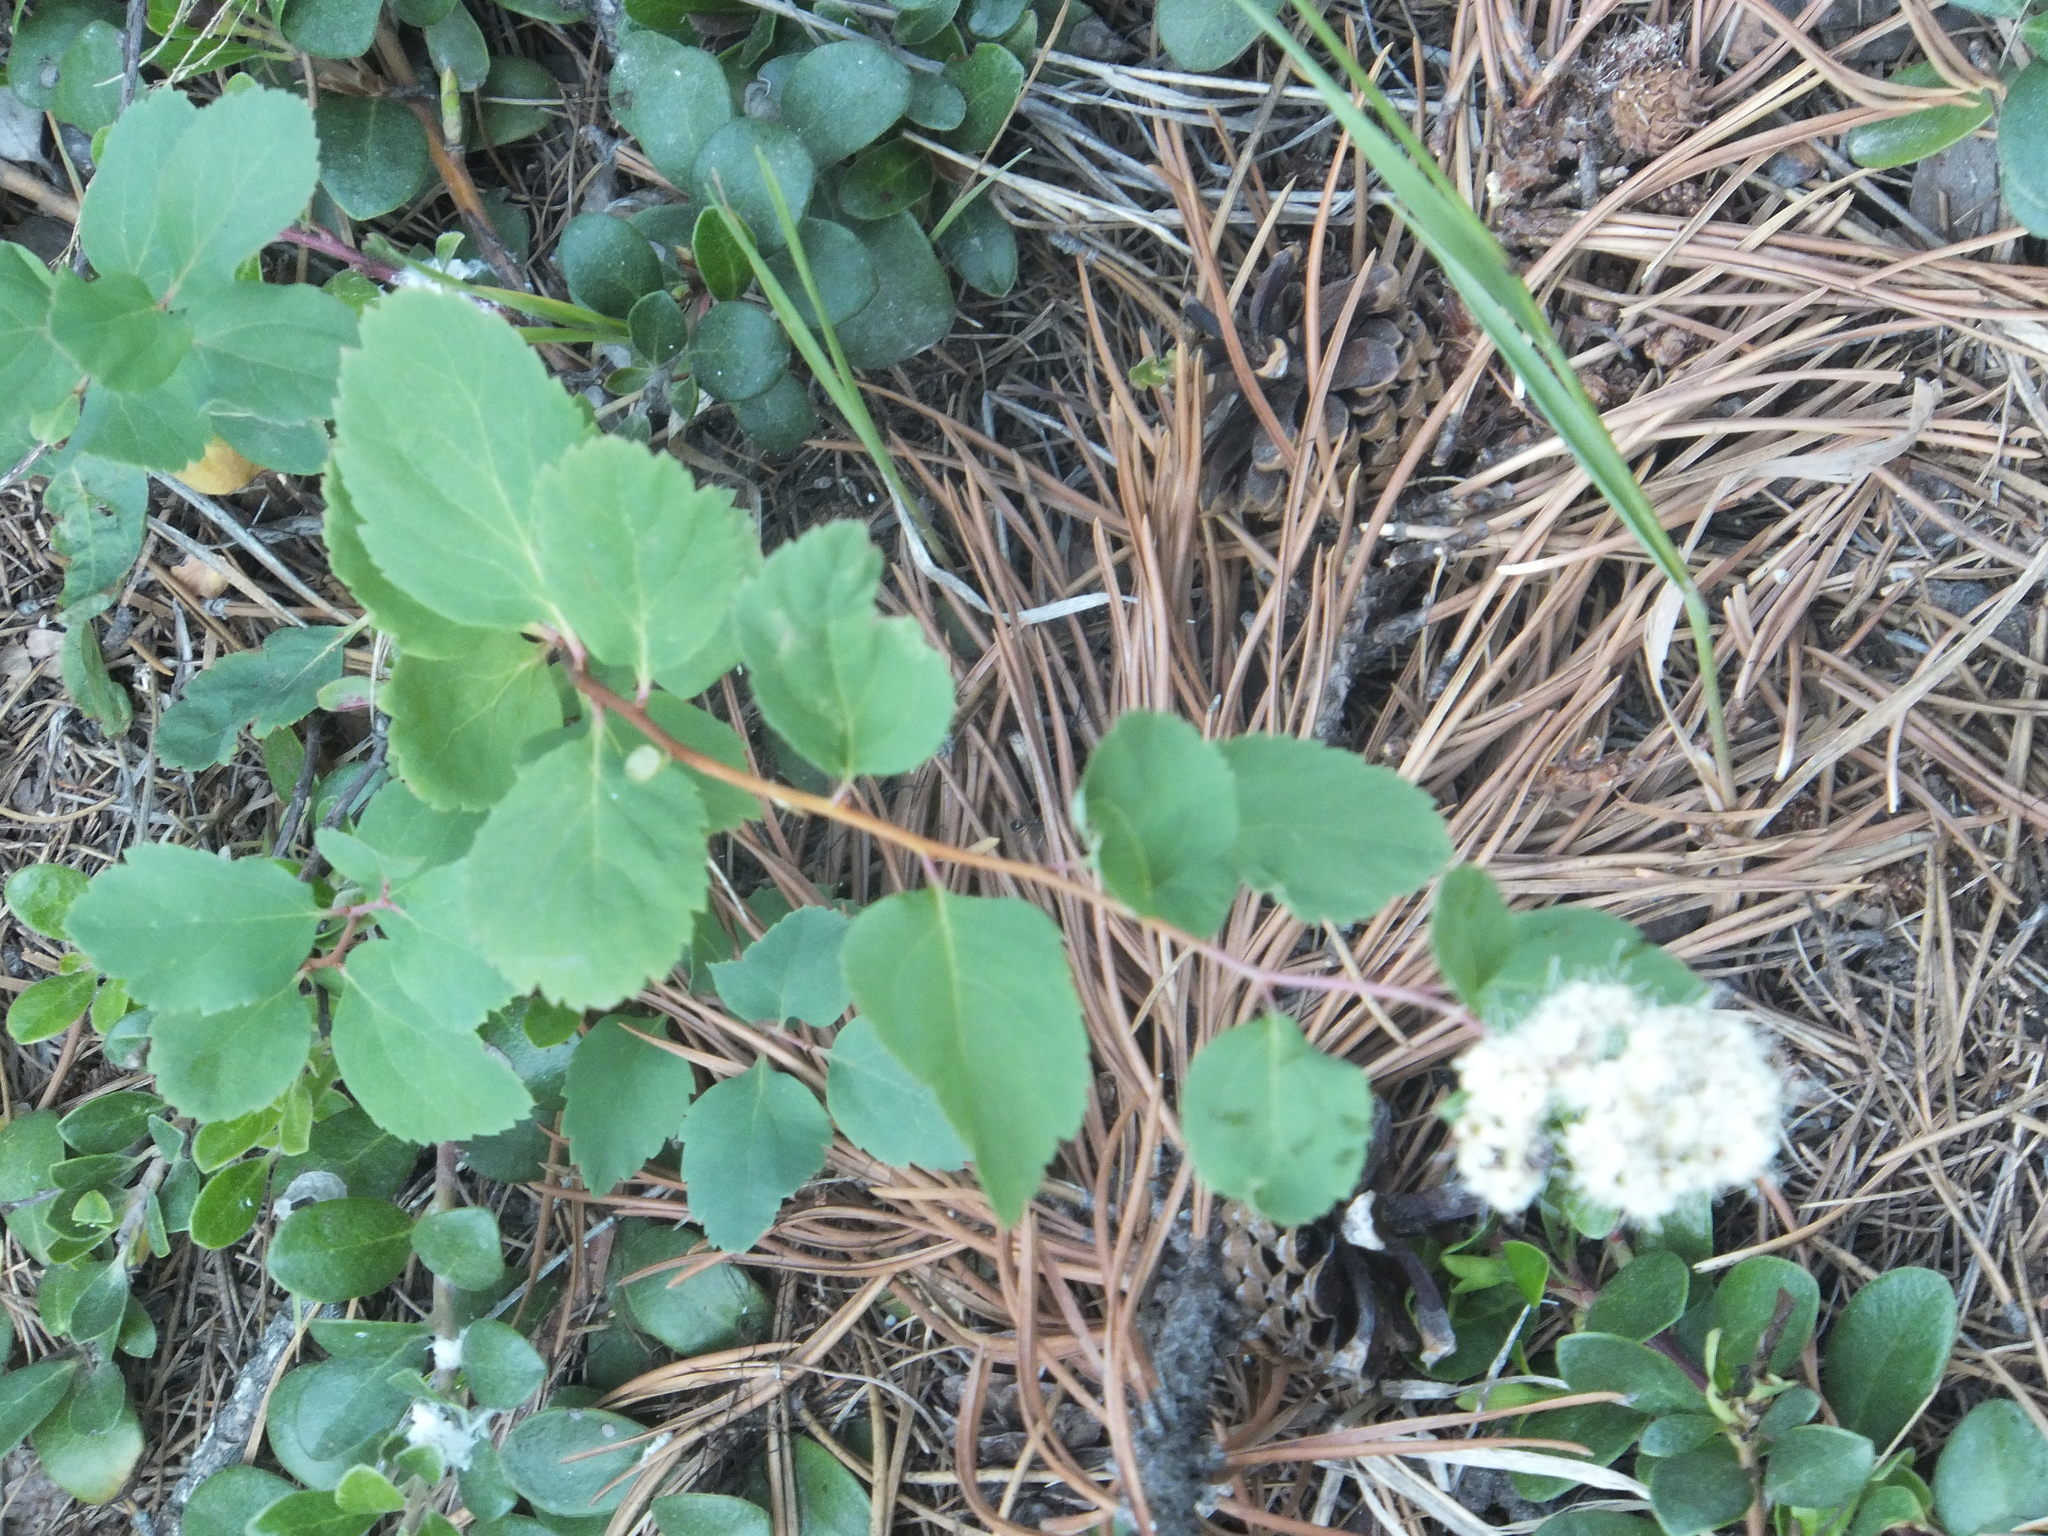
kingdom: Plantae
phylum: Tracheophyta
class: Magnoliopsida
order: Rosales
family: Rosaceae
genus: Spiraea
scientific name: Spiraea lucida
